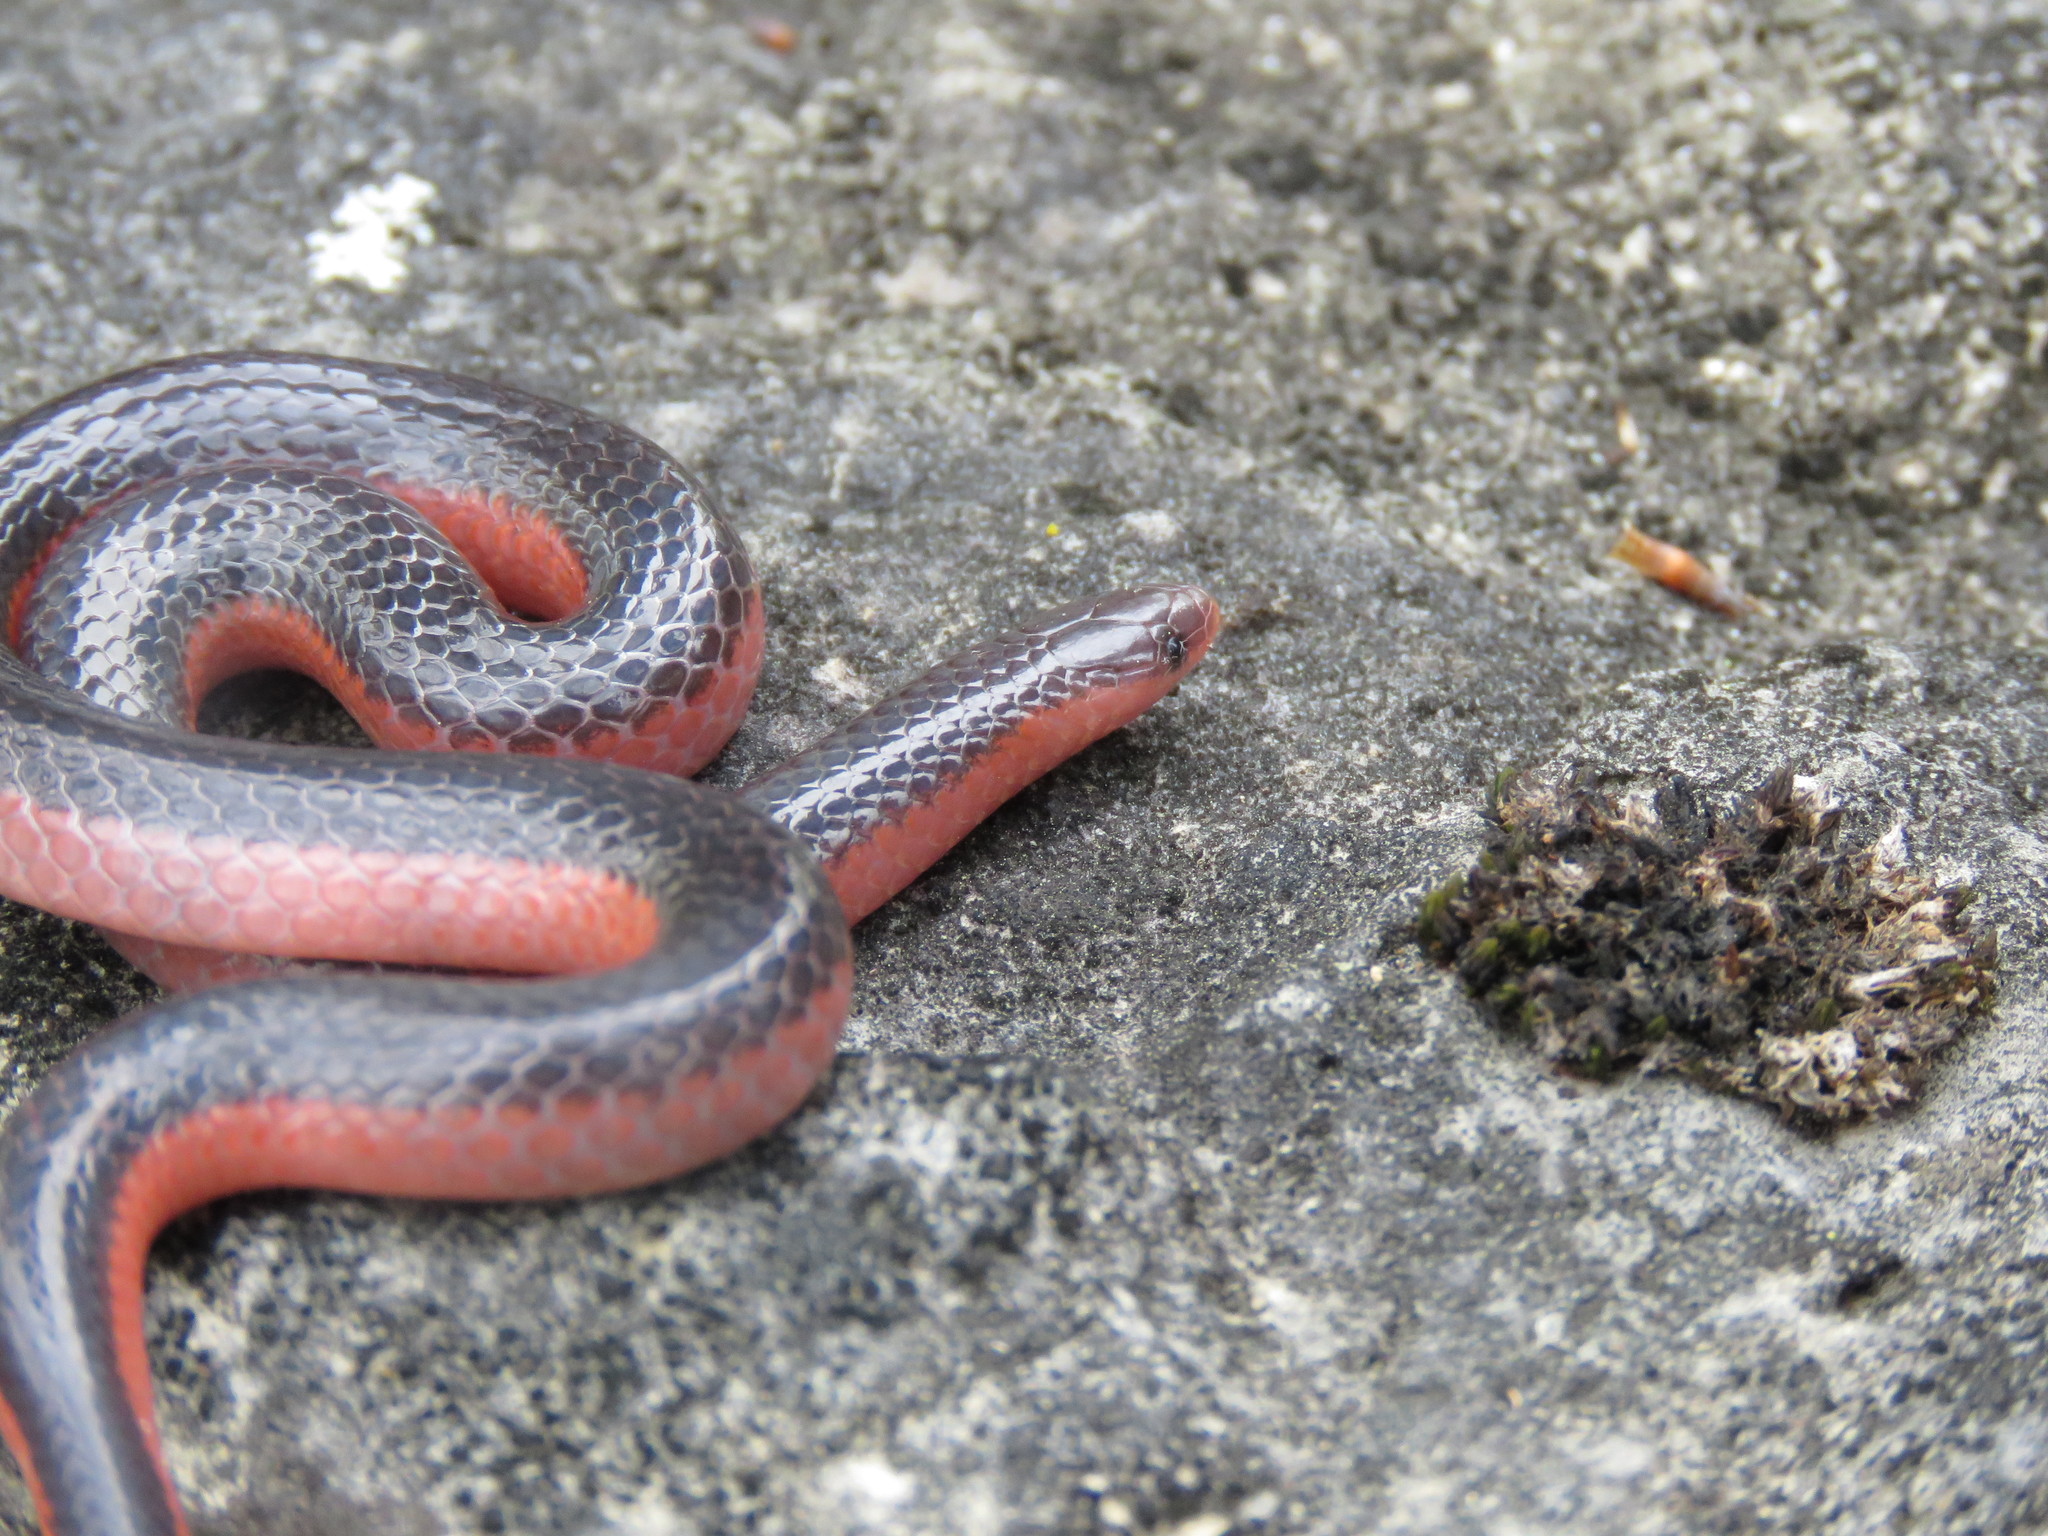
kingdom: Animalia
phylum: Chordata
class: Squamata
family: Colubridae
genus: Carphophis
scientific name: Carphophis vermis
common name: Western worm snake
